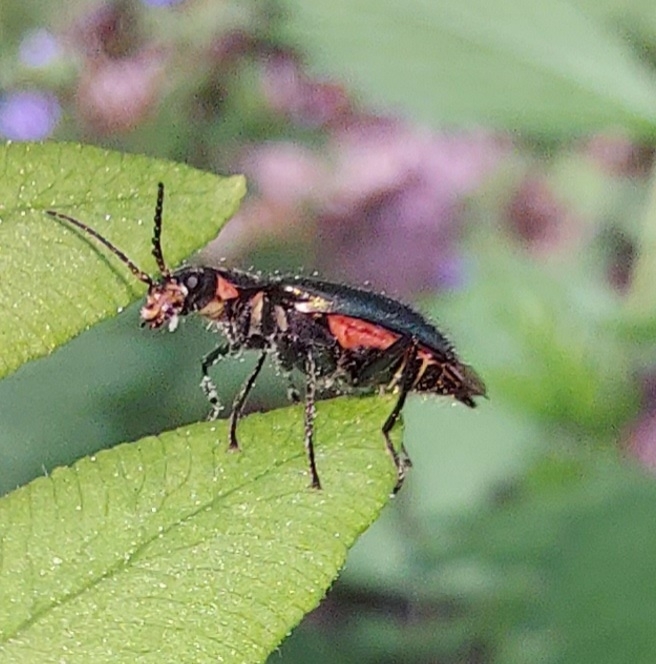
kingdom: Animalia
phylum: Arthropoda
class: Insecta
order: Coleoptera
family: Melyridae
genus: Malachius
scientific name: Malachius bipustulatus
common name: Malachite beetle
